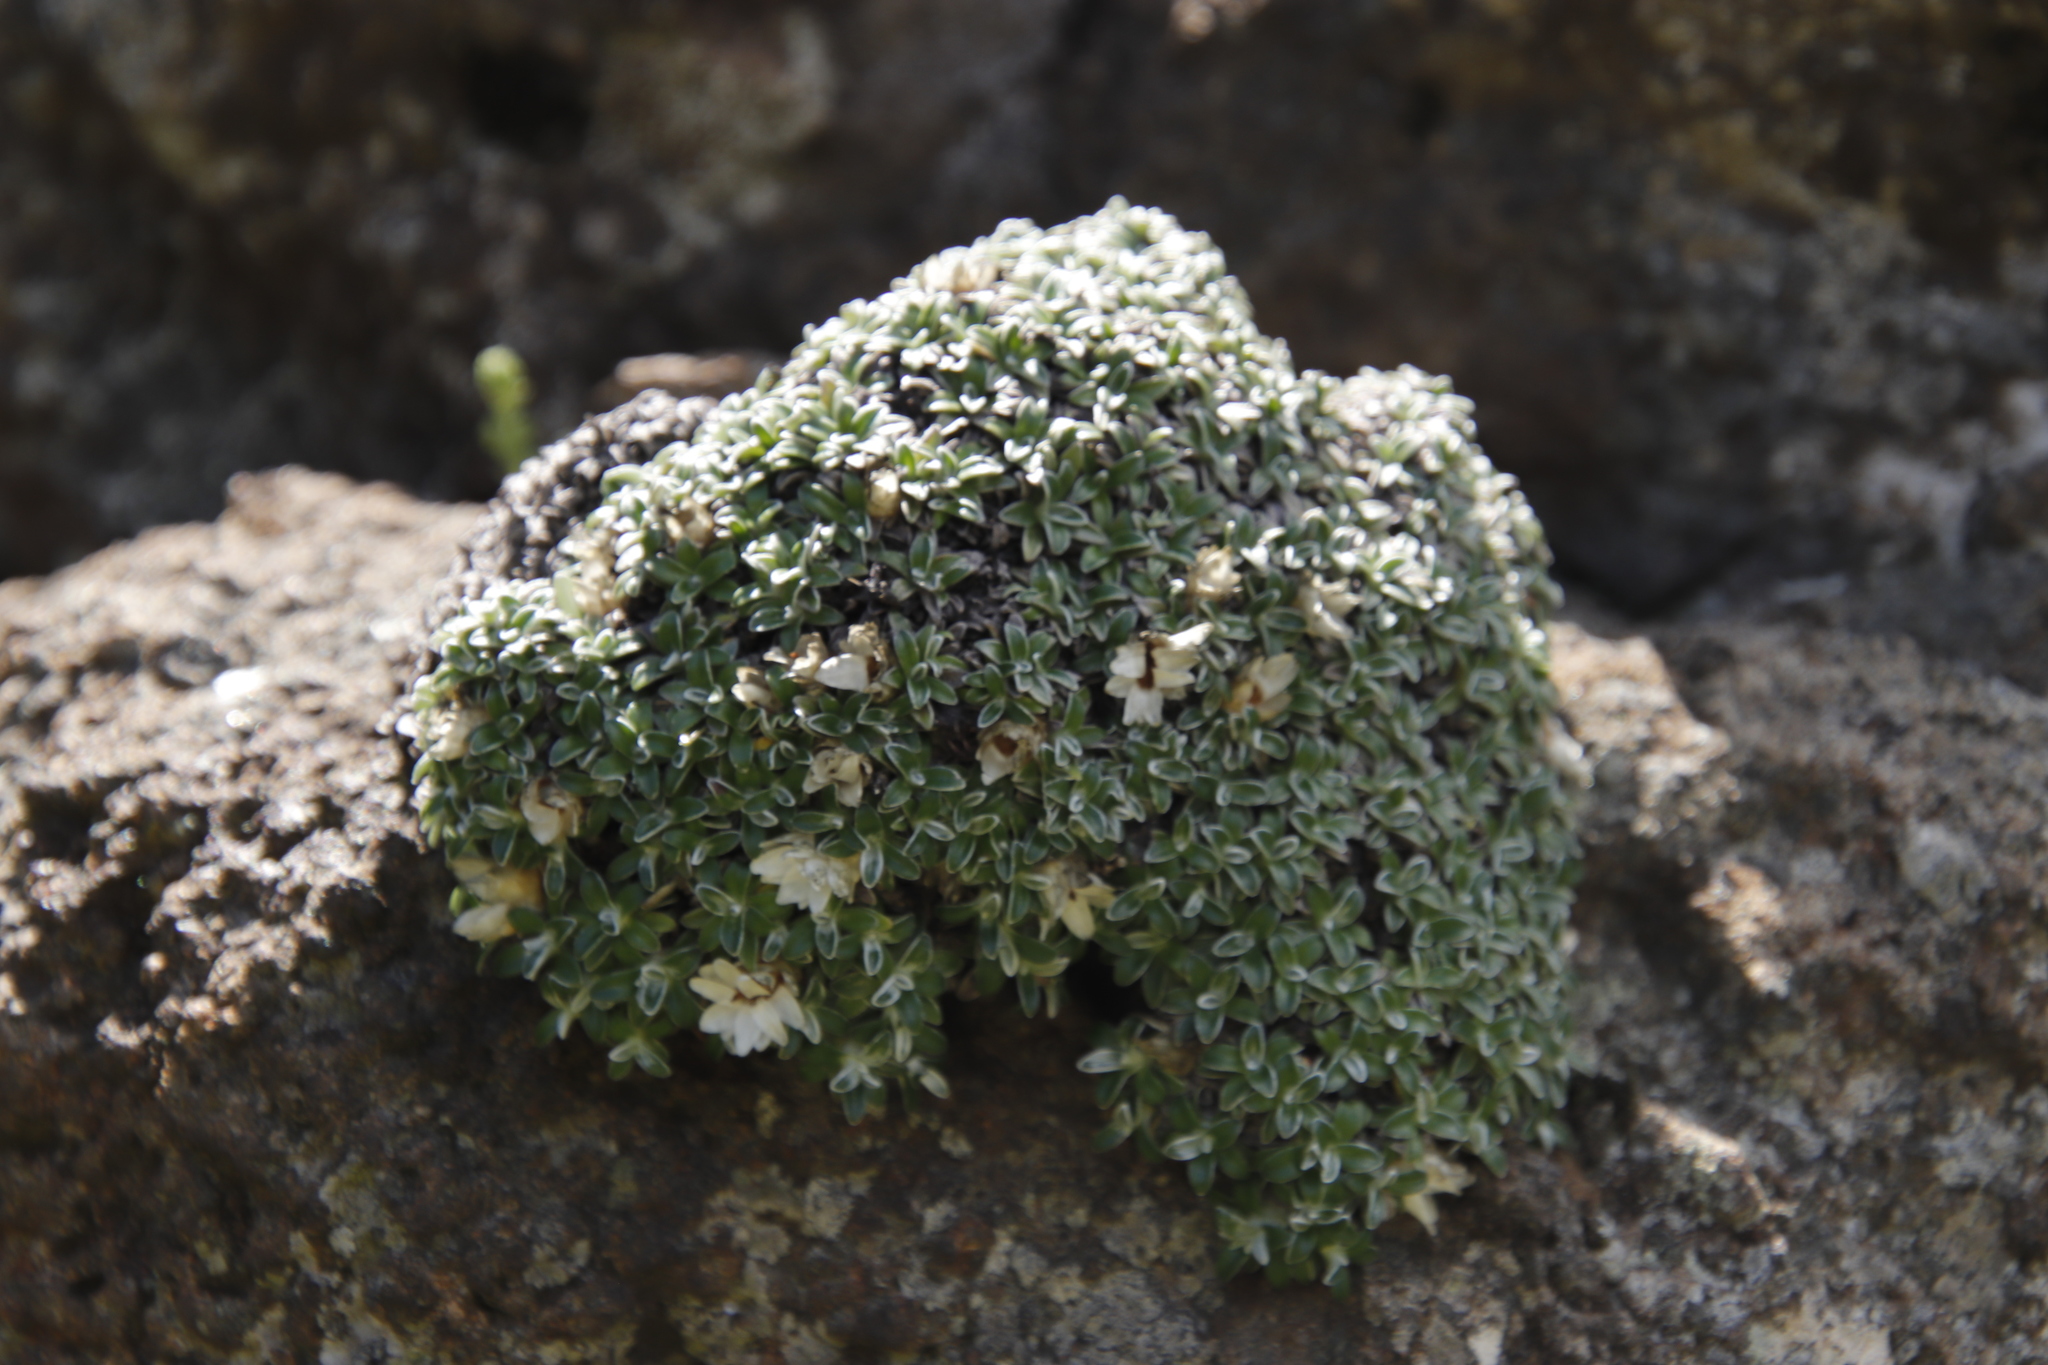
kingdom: Plantae
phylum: Tracheophyta
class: Magnoliopsida
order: Asterales
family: Asteraceae
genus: Helichrysum
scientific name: Helichrysum sessilioides
